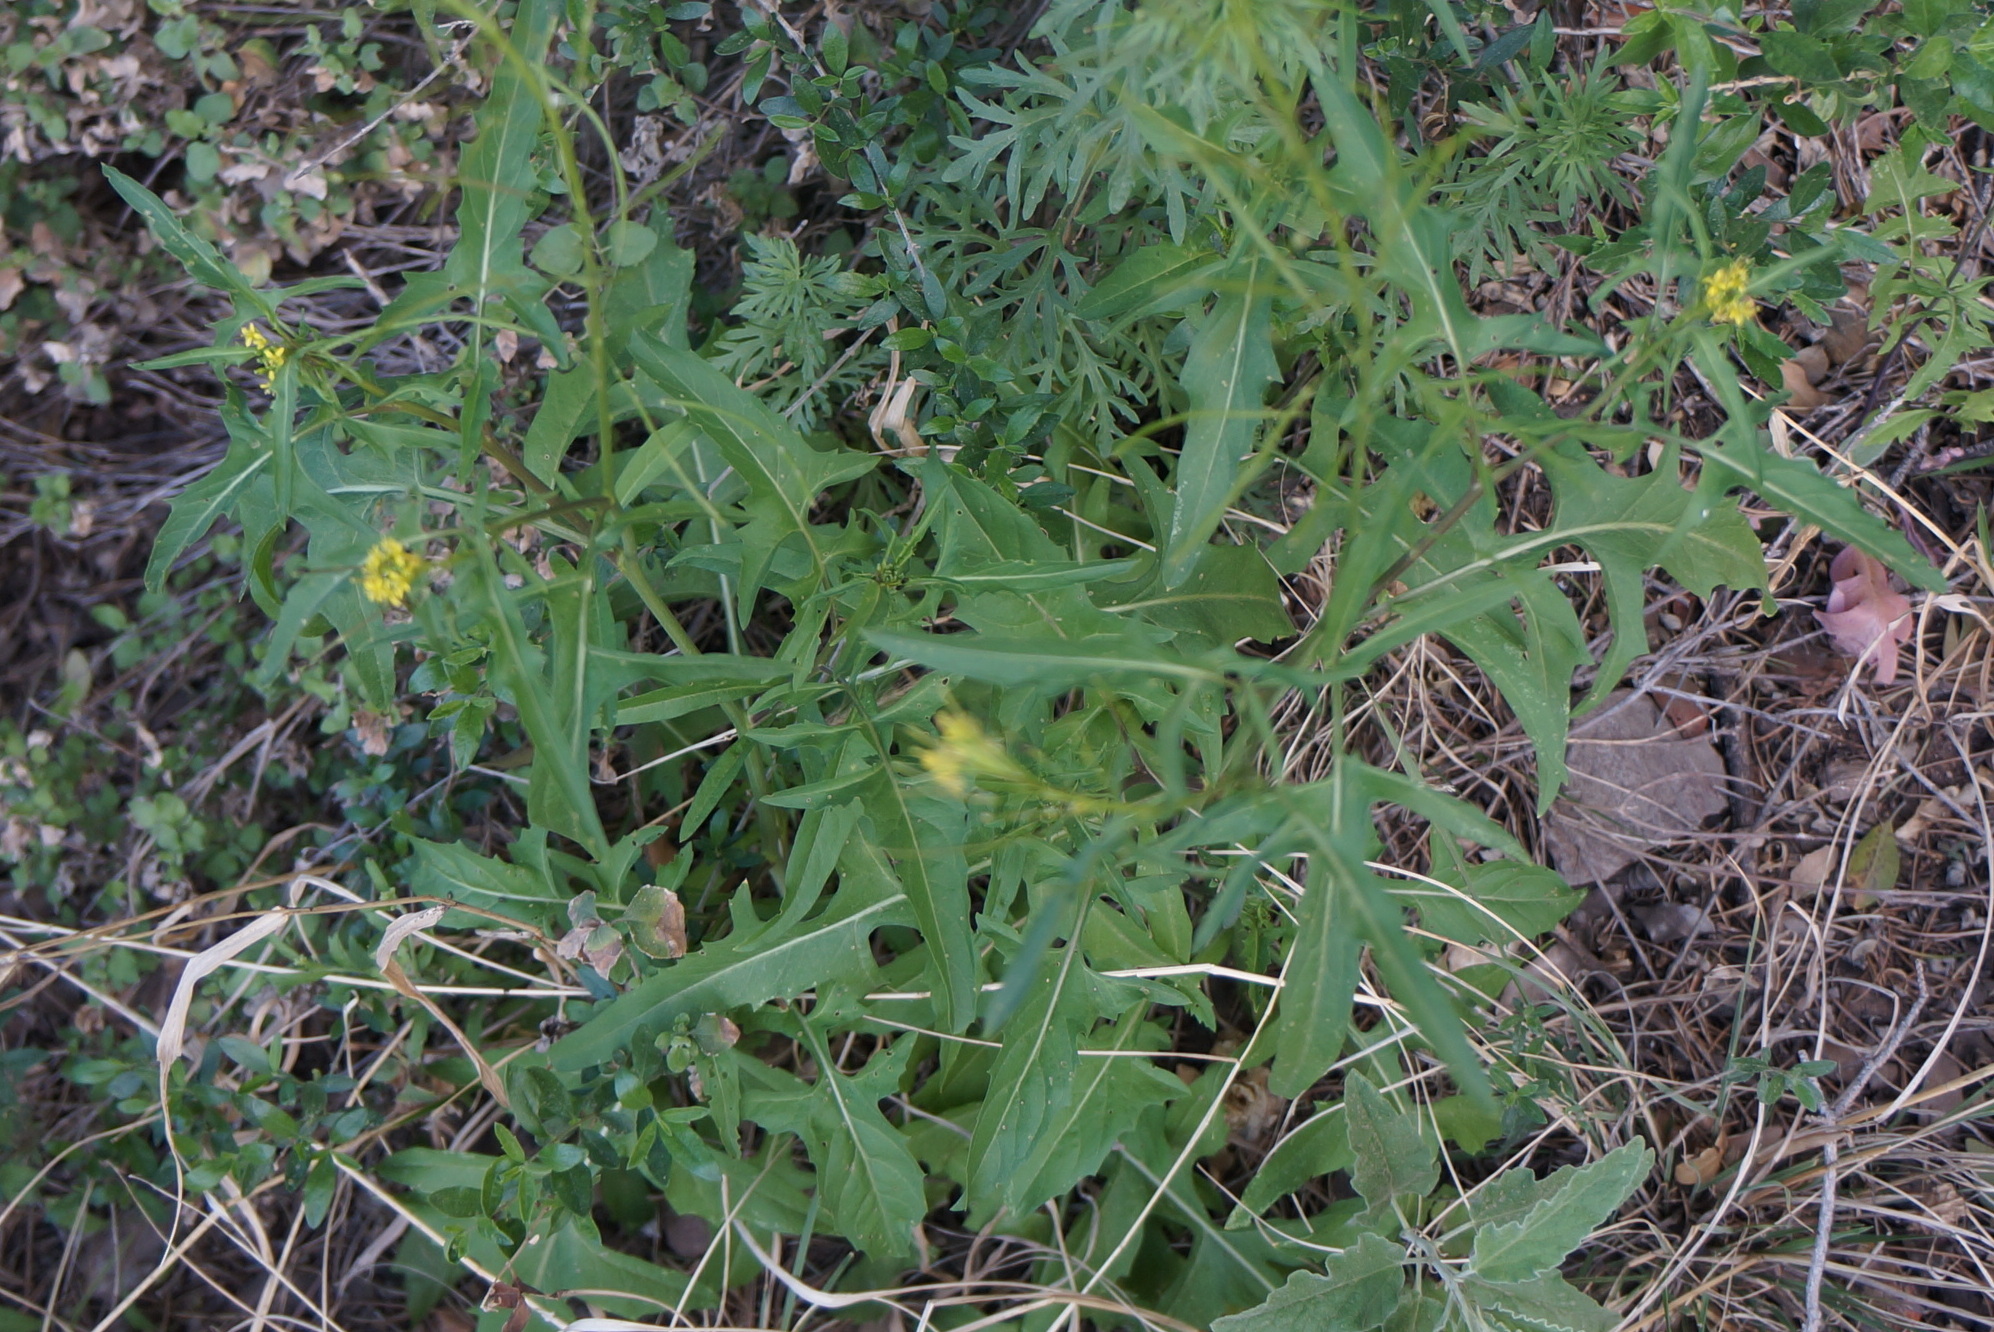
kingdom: Plantae
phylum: Tracheophyta
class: Magnoliopsida
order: Brassicales
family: Brassicaceae
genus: Sisymbrium
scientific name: Sisymbrium irio
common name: London rocket
